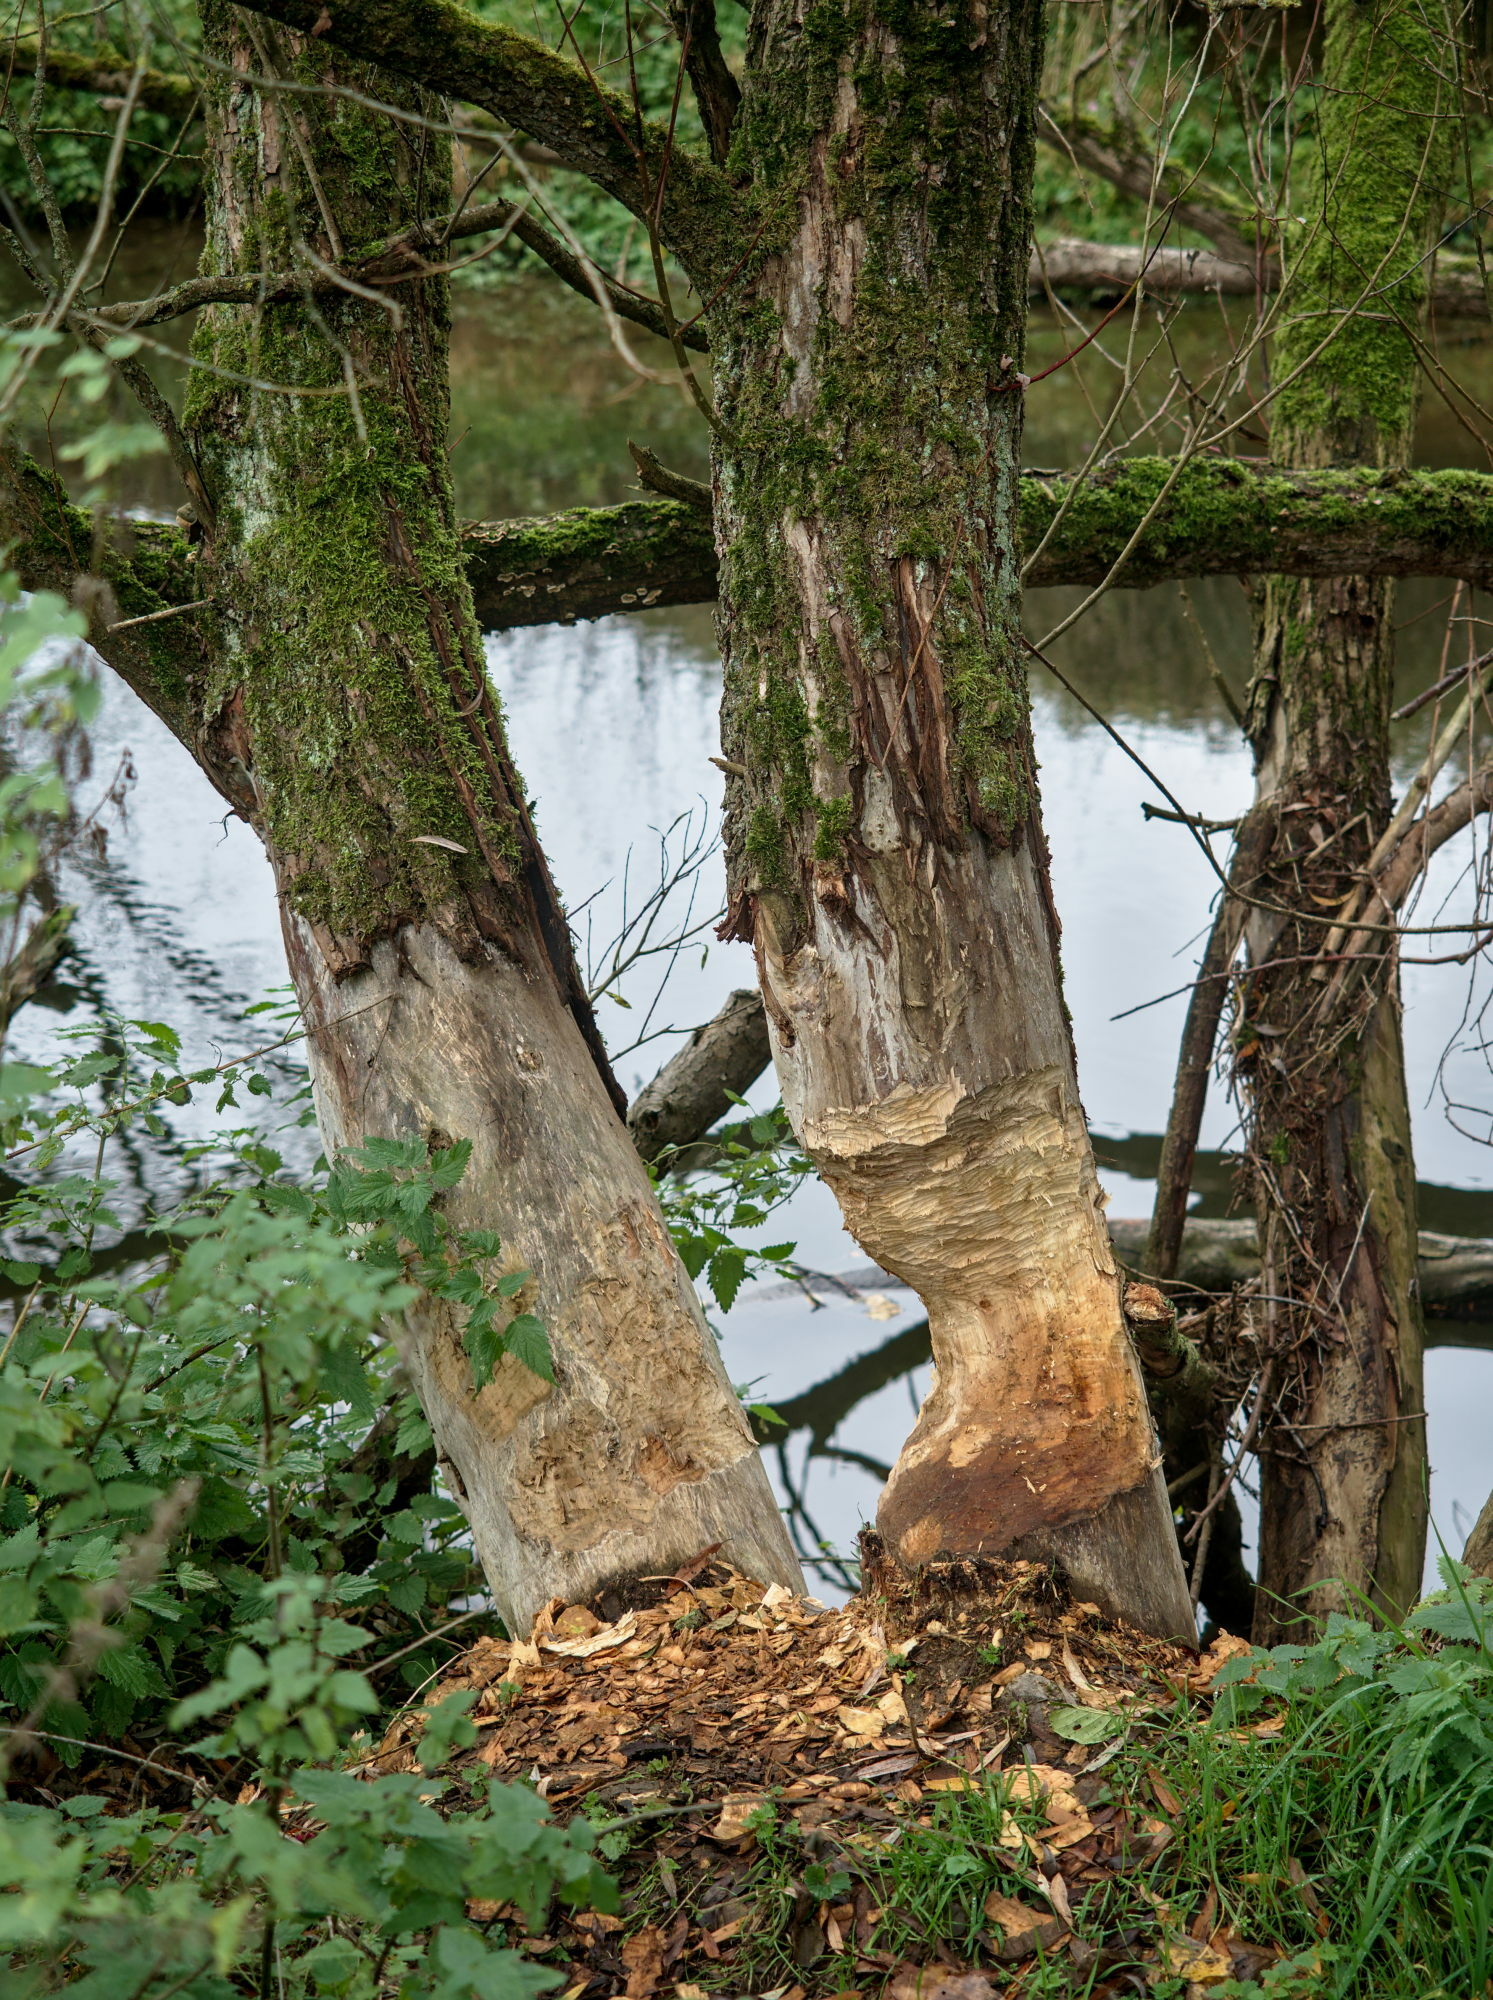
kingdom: Animalia
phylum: Chordata
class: Mammalia
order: Rodentia
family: Castoridae
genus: Castor
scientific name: Castor fiber
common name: Eurasian beaver
